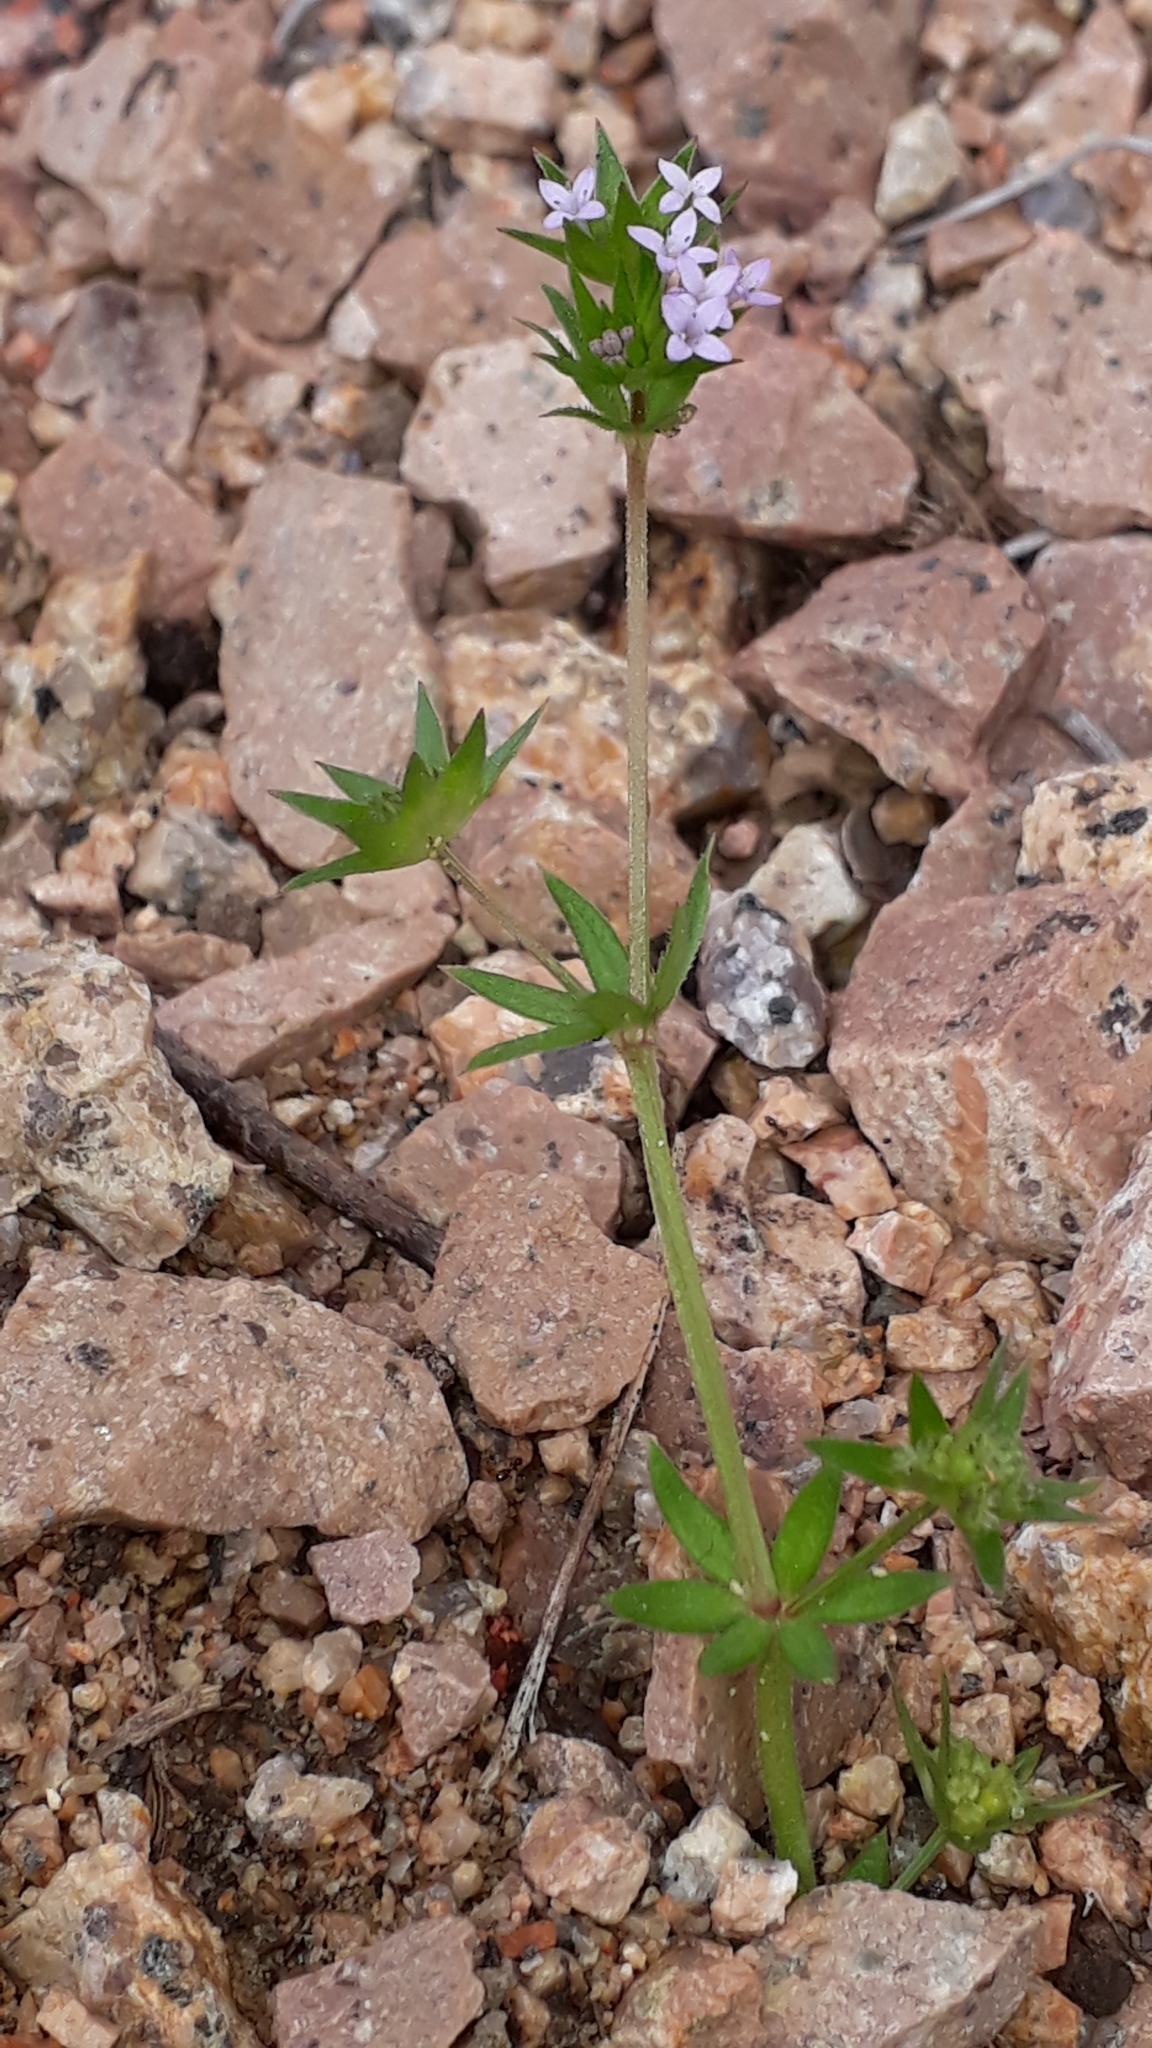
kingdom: Plantae
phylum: Tracheophyta
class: Magnoliopsida
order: Gentianales
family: Rubiaceae
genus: Sherardia
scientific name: Sherardia arvensis
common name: Field madder
